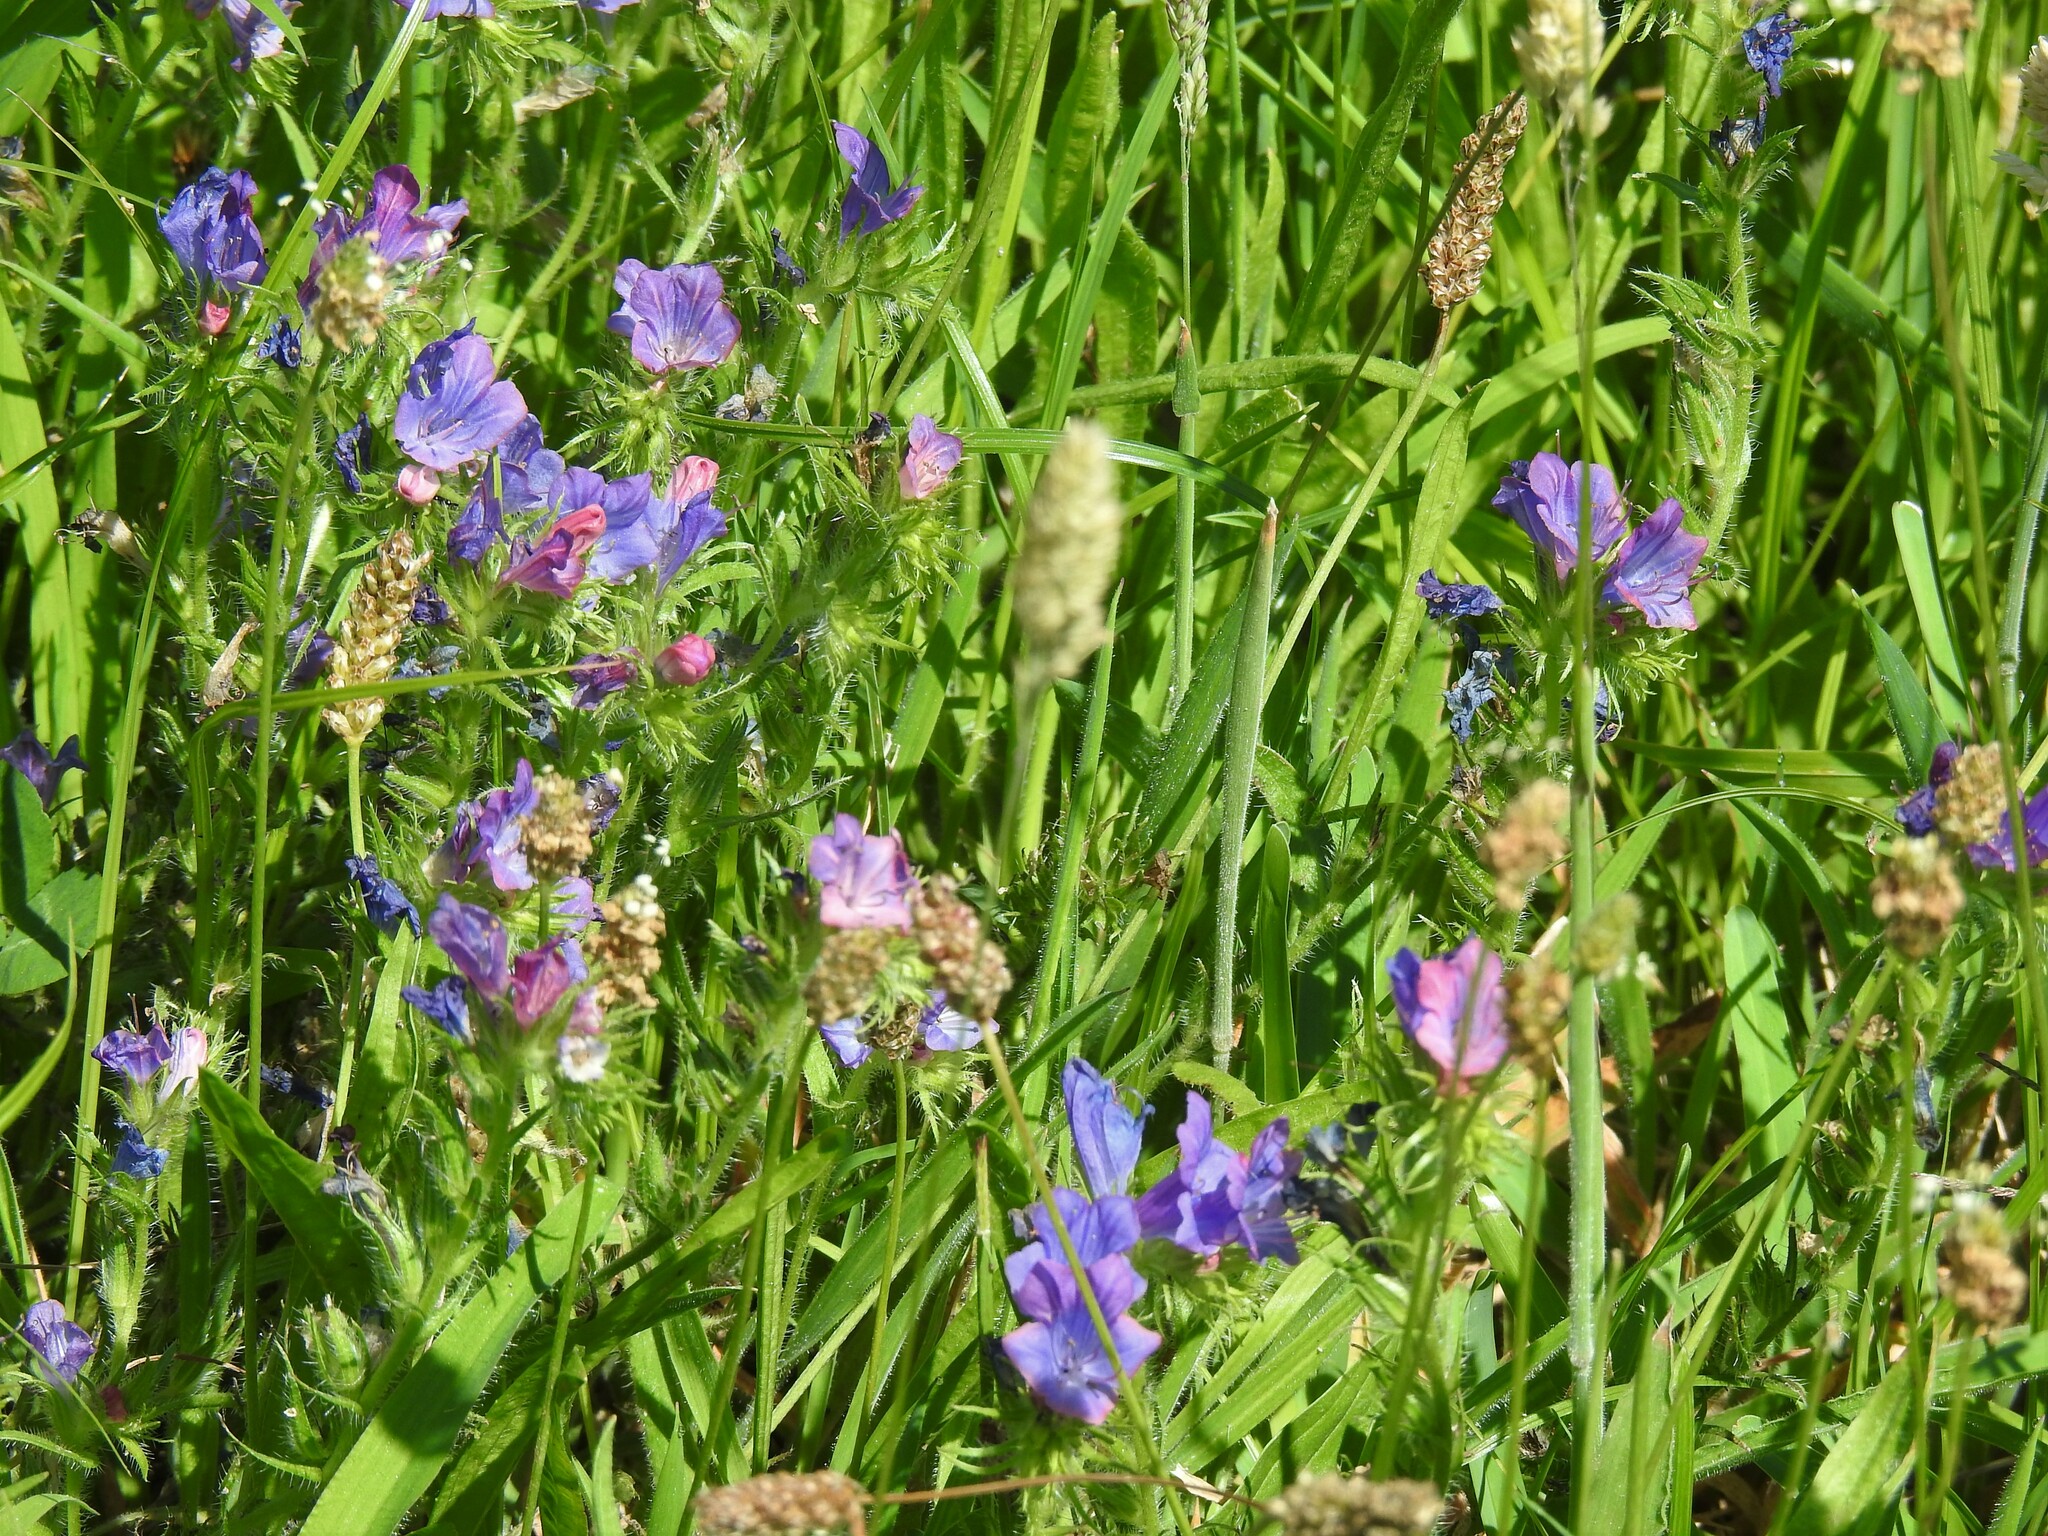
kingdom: Plantae
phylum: Tracheophyta
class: Magnoliopsida
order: Boraginales
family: Boraginaceae
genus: Echium
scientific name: Echium plantagineum
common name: Purple viper's-bugloss
